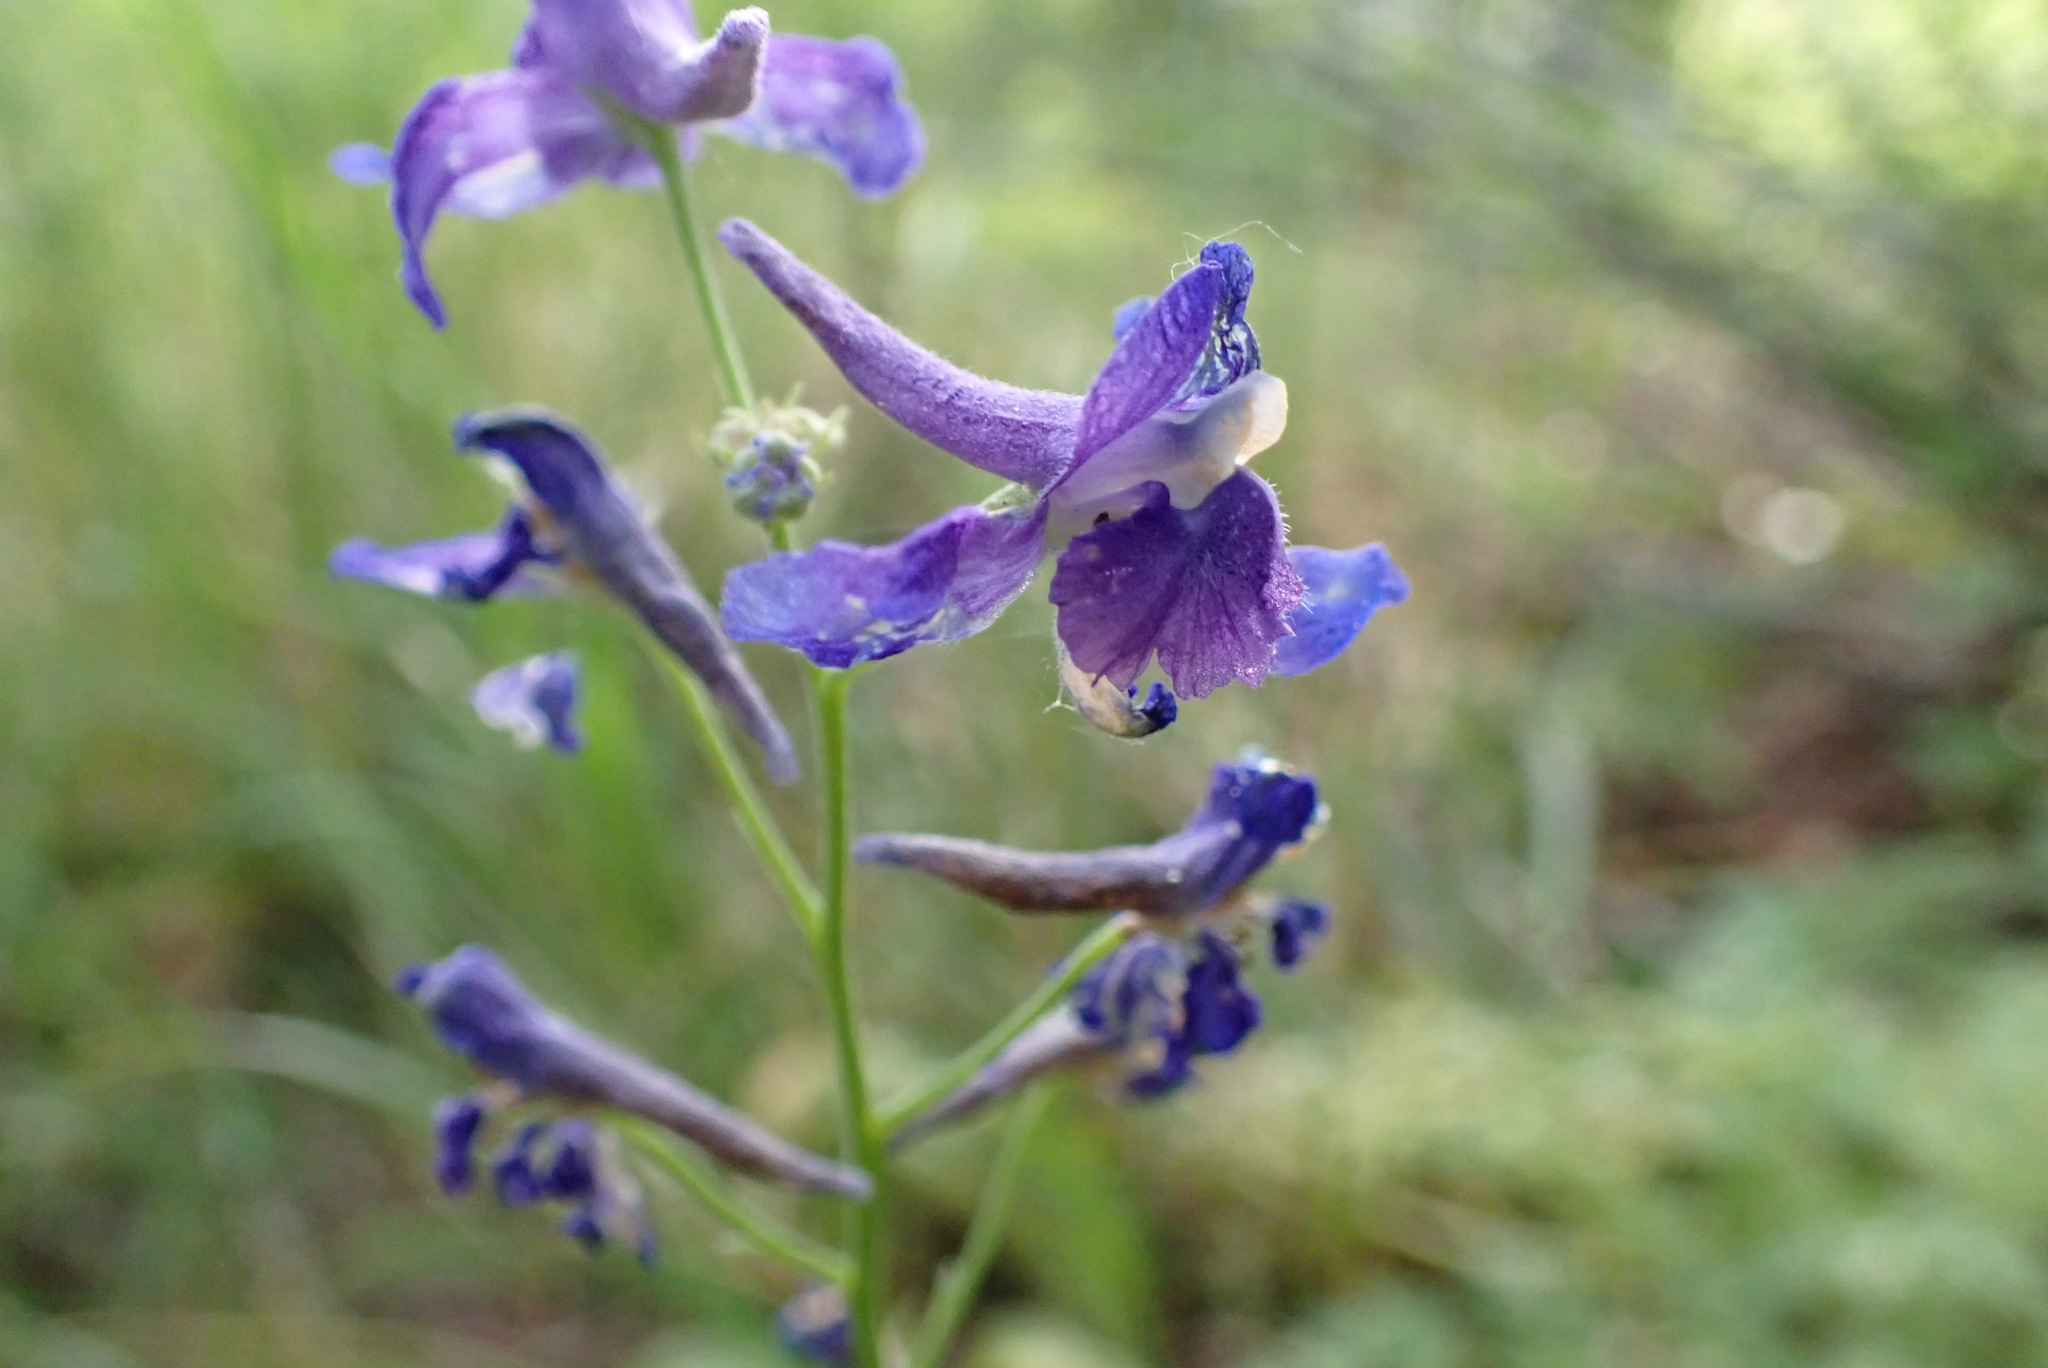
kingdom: Plantae
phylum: Tracheophyta
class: Magnoliopsida
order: Ranunculales
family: Ranunculaceae
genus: Delphinium
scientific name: Delphinium menziesii
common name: Menzies's larkspur
